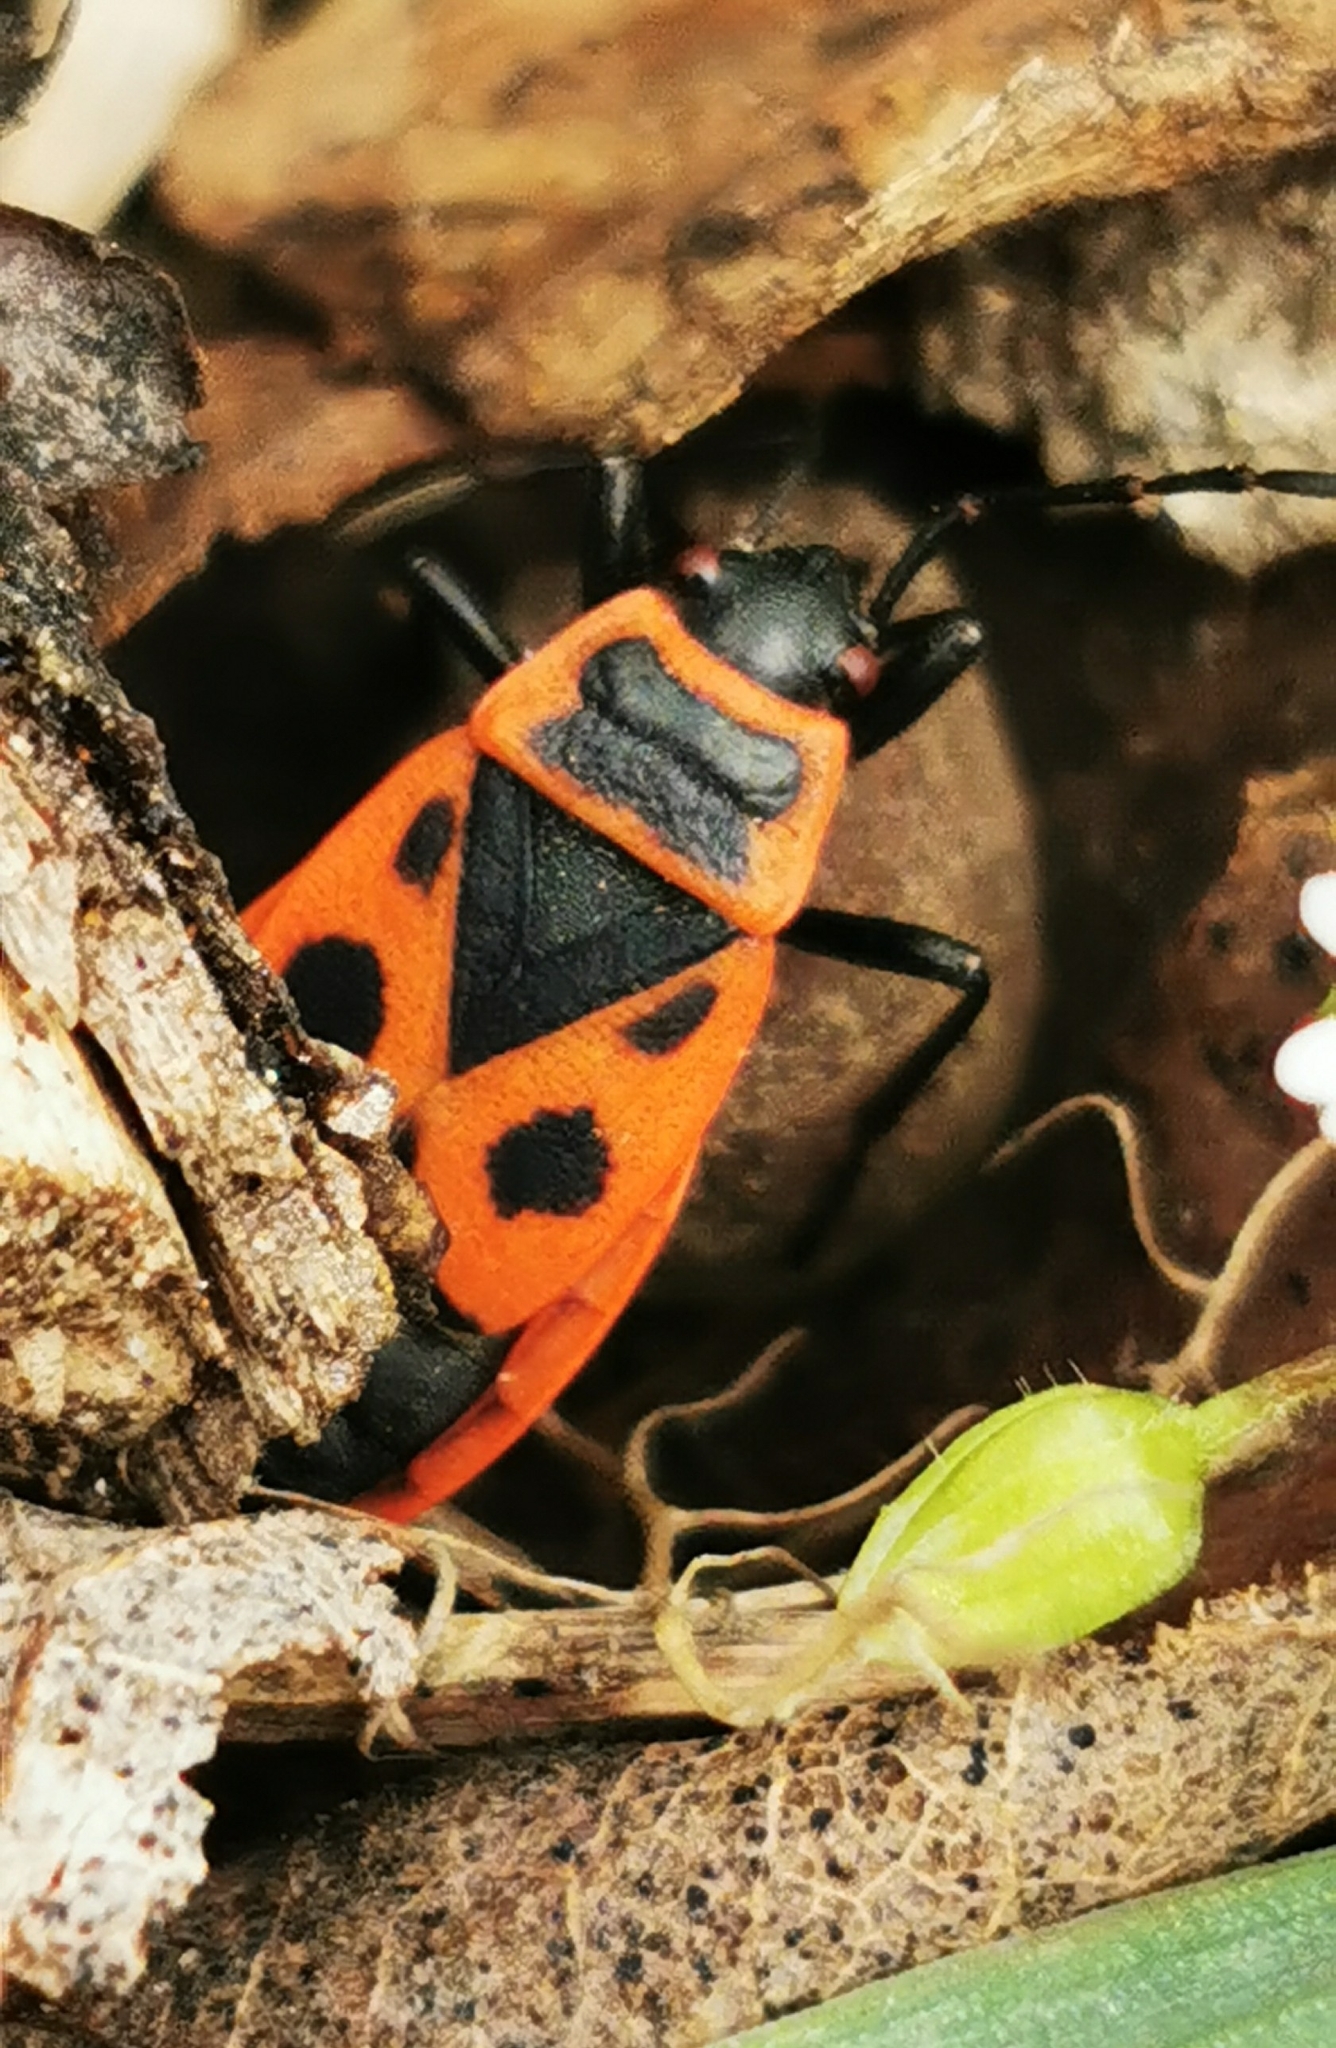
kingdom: Animalia
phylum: Arthropoda
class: Insecta
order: Hemiptera
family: Pyrrhocoridae
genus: Pyrrhocoris
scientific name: Pyrrhocoris apterus
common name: Firebug
